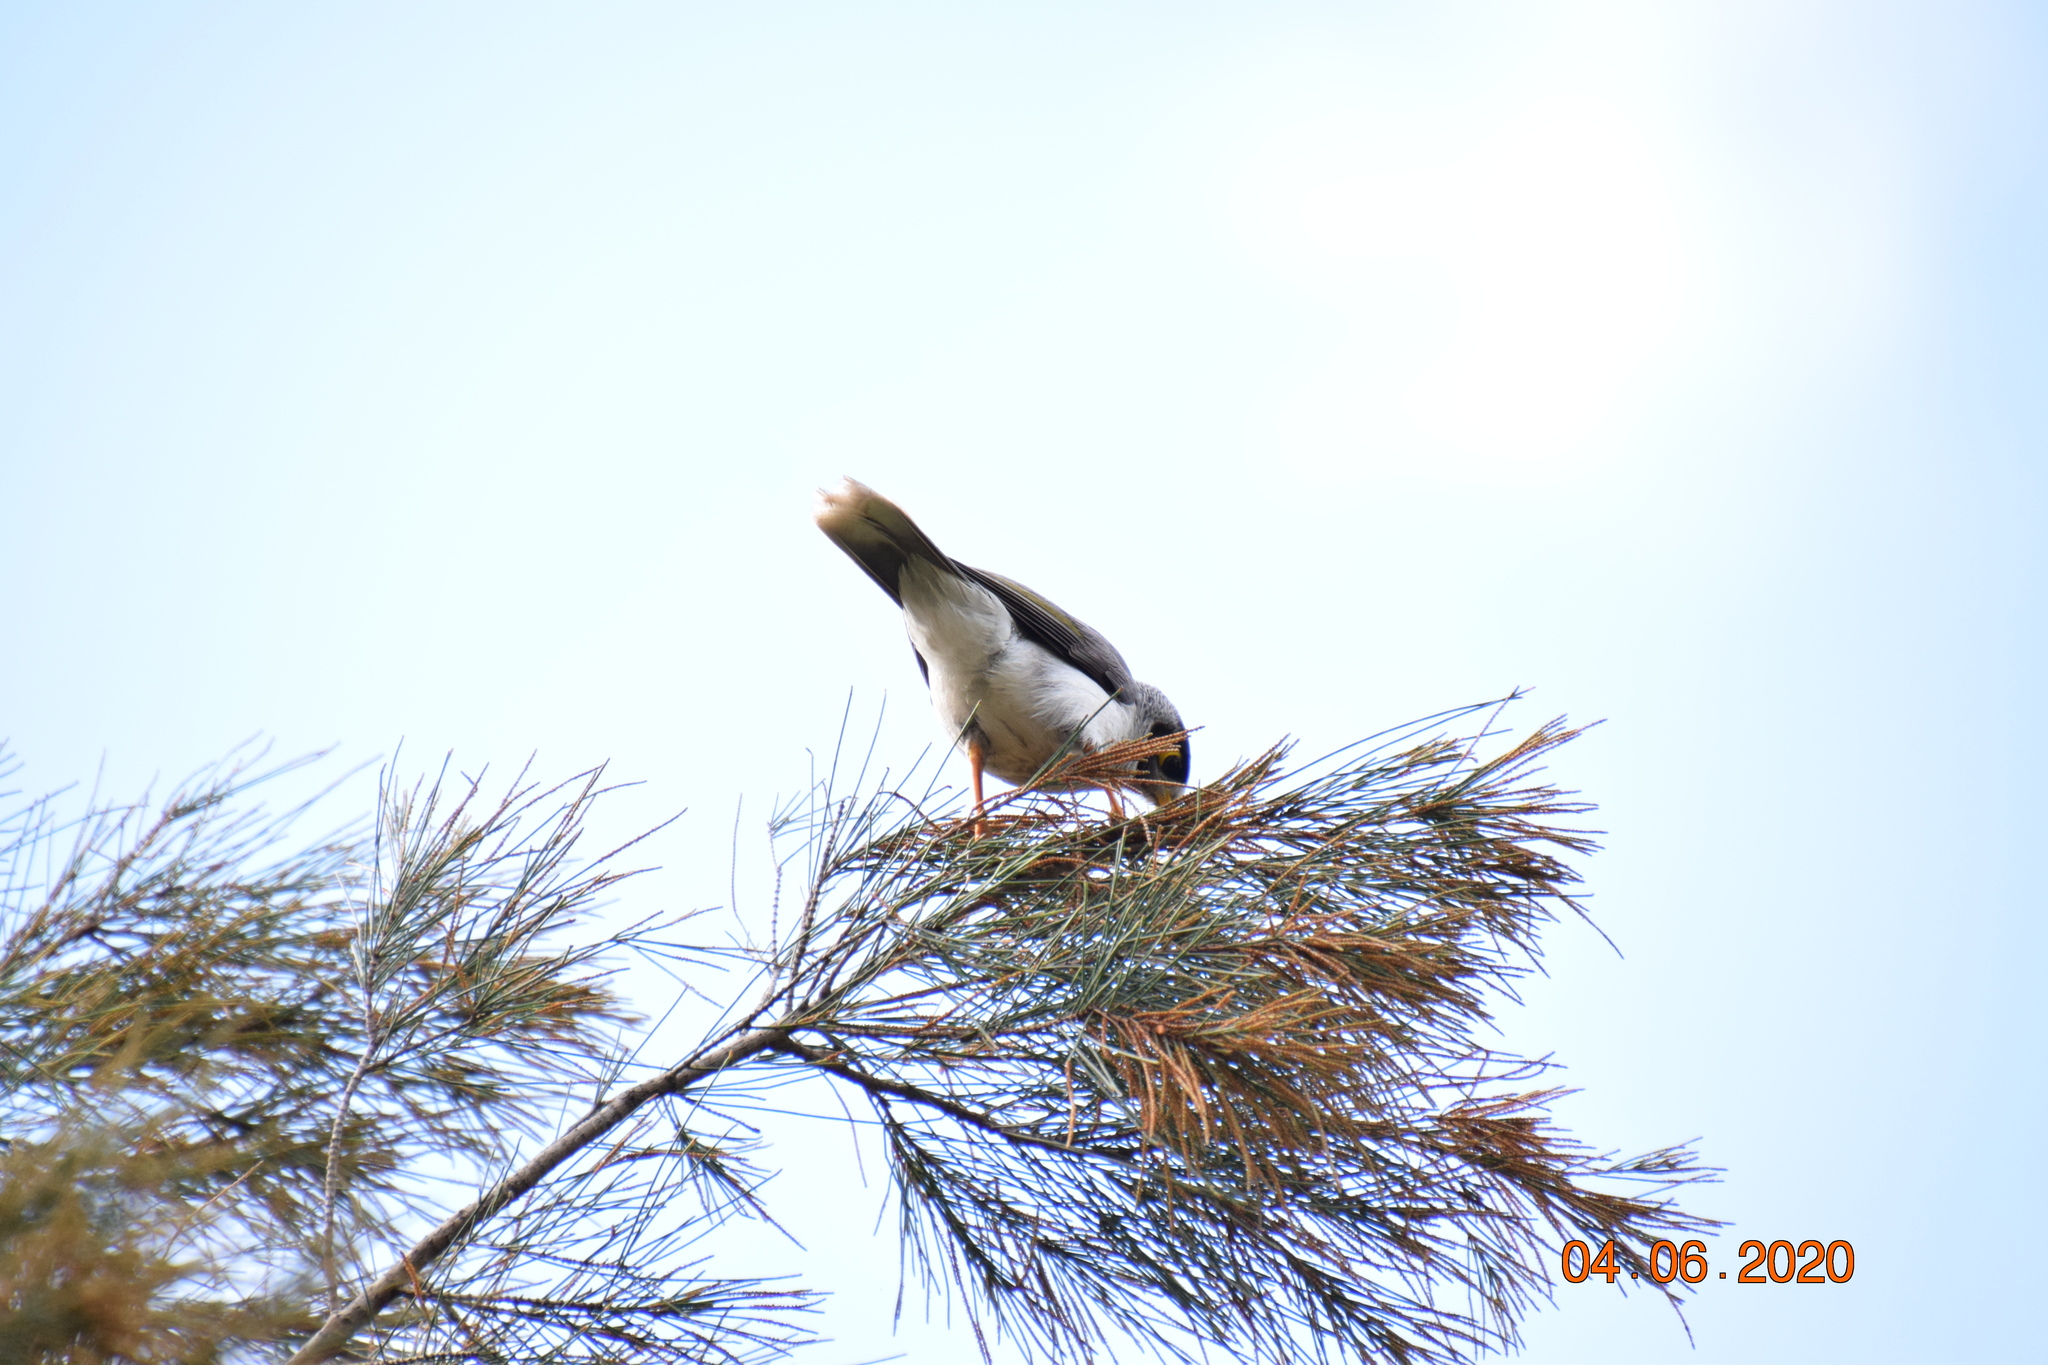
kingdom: Animalia
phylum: Chordata
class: Aves
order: Passeriformes
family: Meliphagidae
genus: Manorina
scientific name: Manorina melanocephala
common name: Noisy miner
